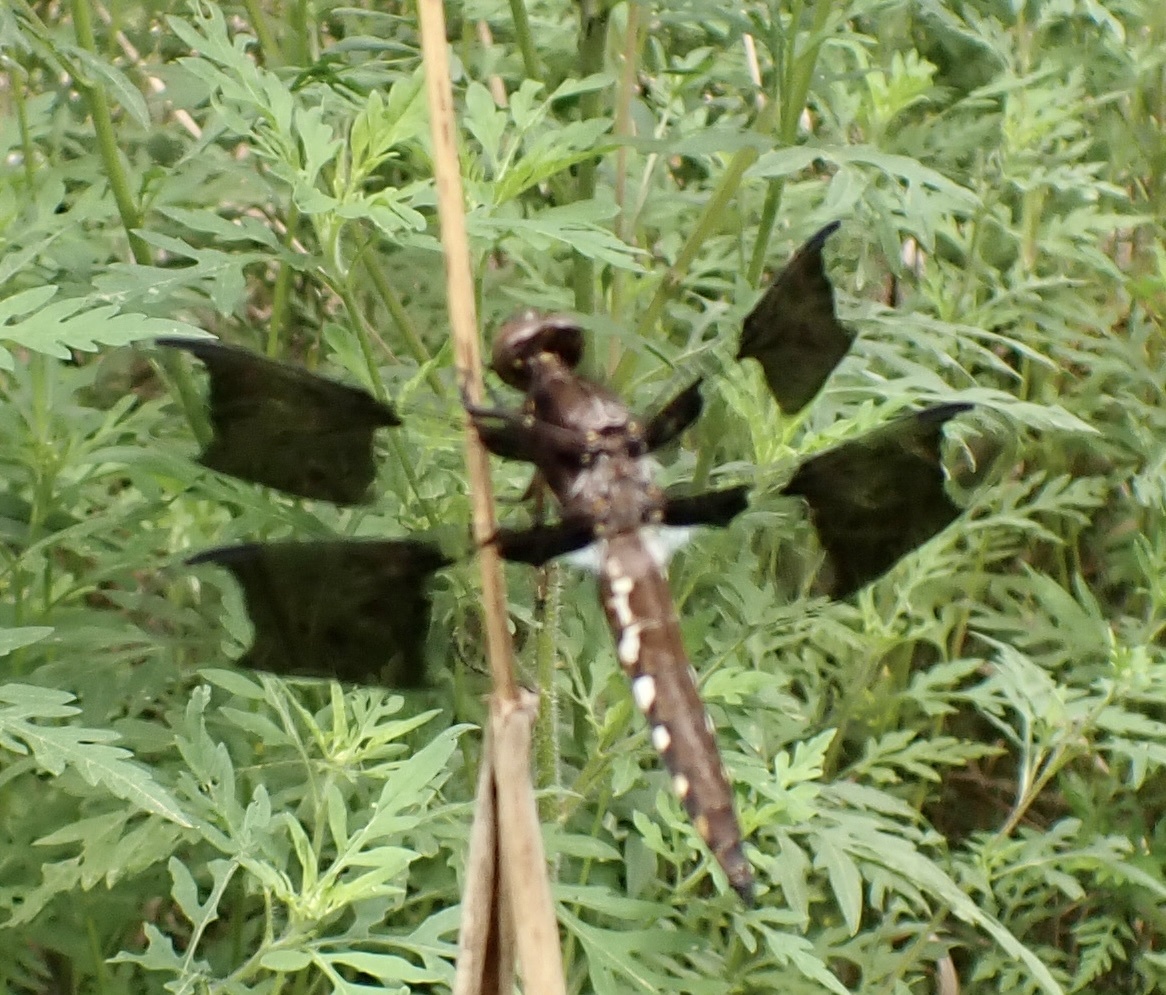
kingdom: Animalia
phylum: Arthropoda
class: Insecta
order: Odonata
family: Libellulidae
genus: Plathemis
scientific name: Plathemis lydia
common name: Common whitetail
